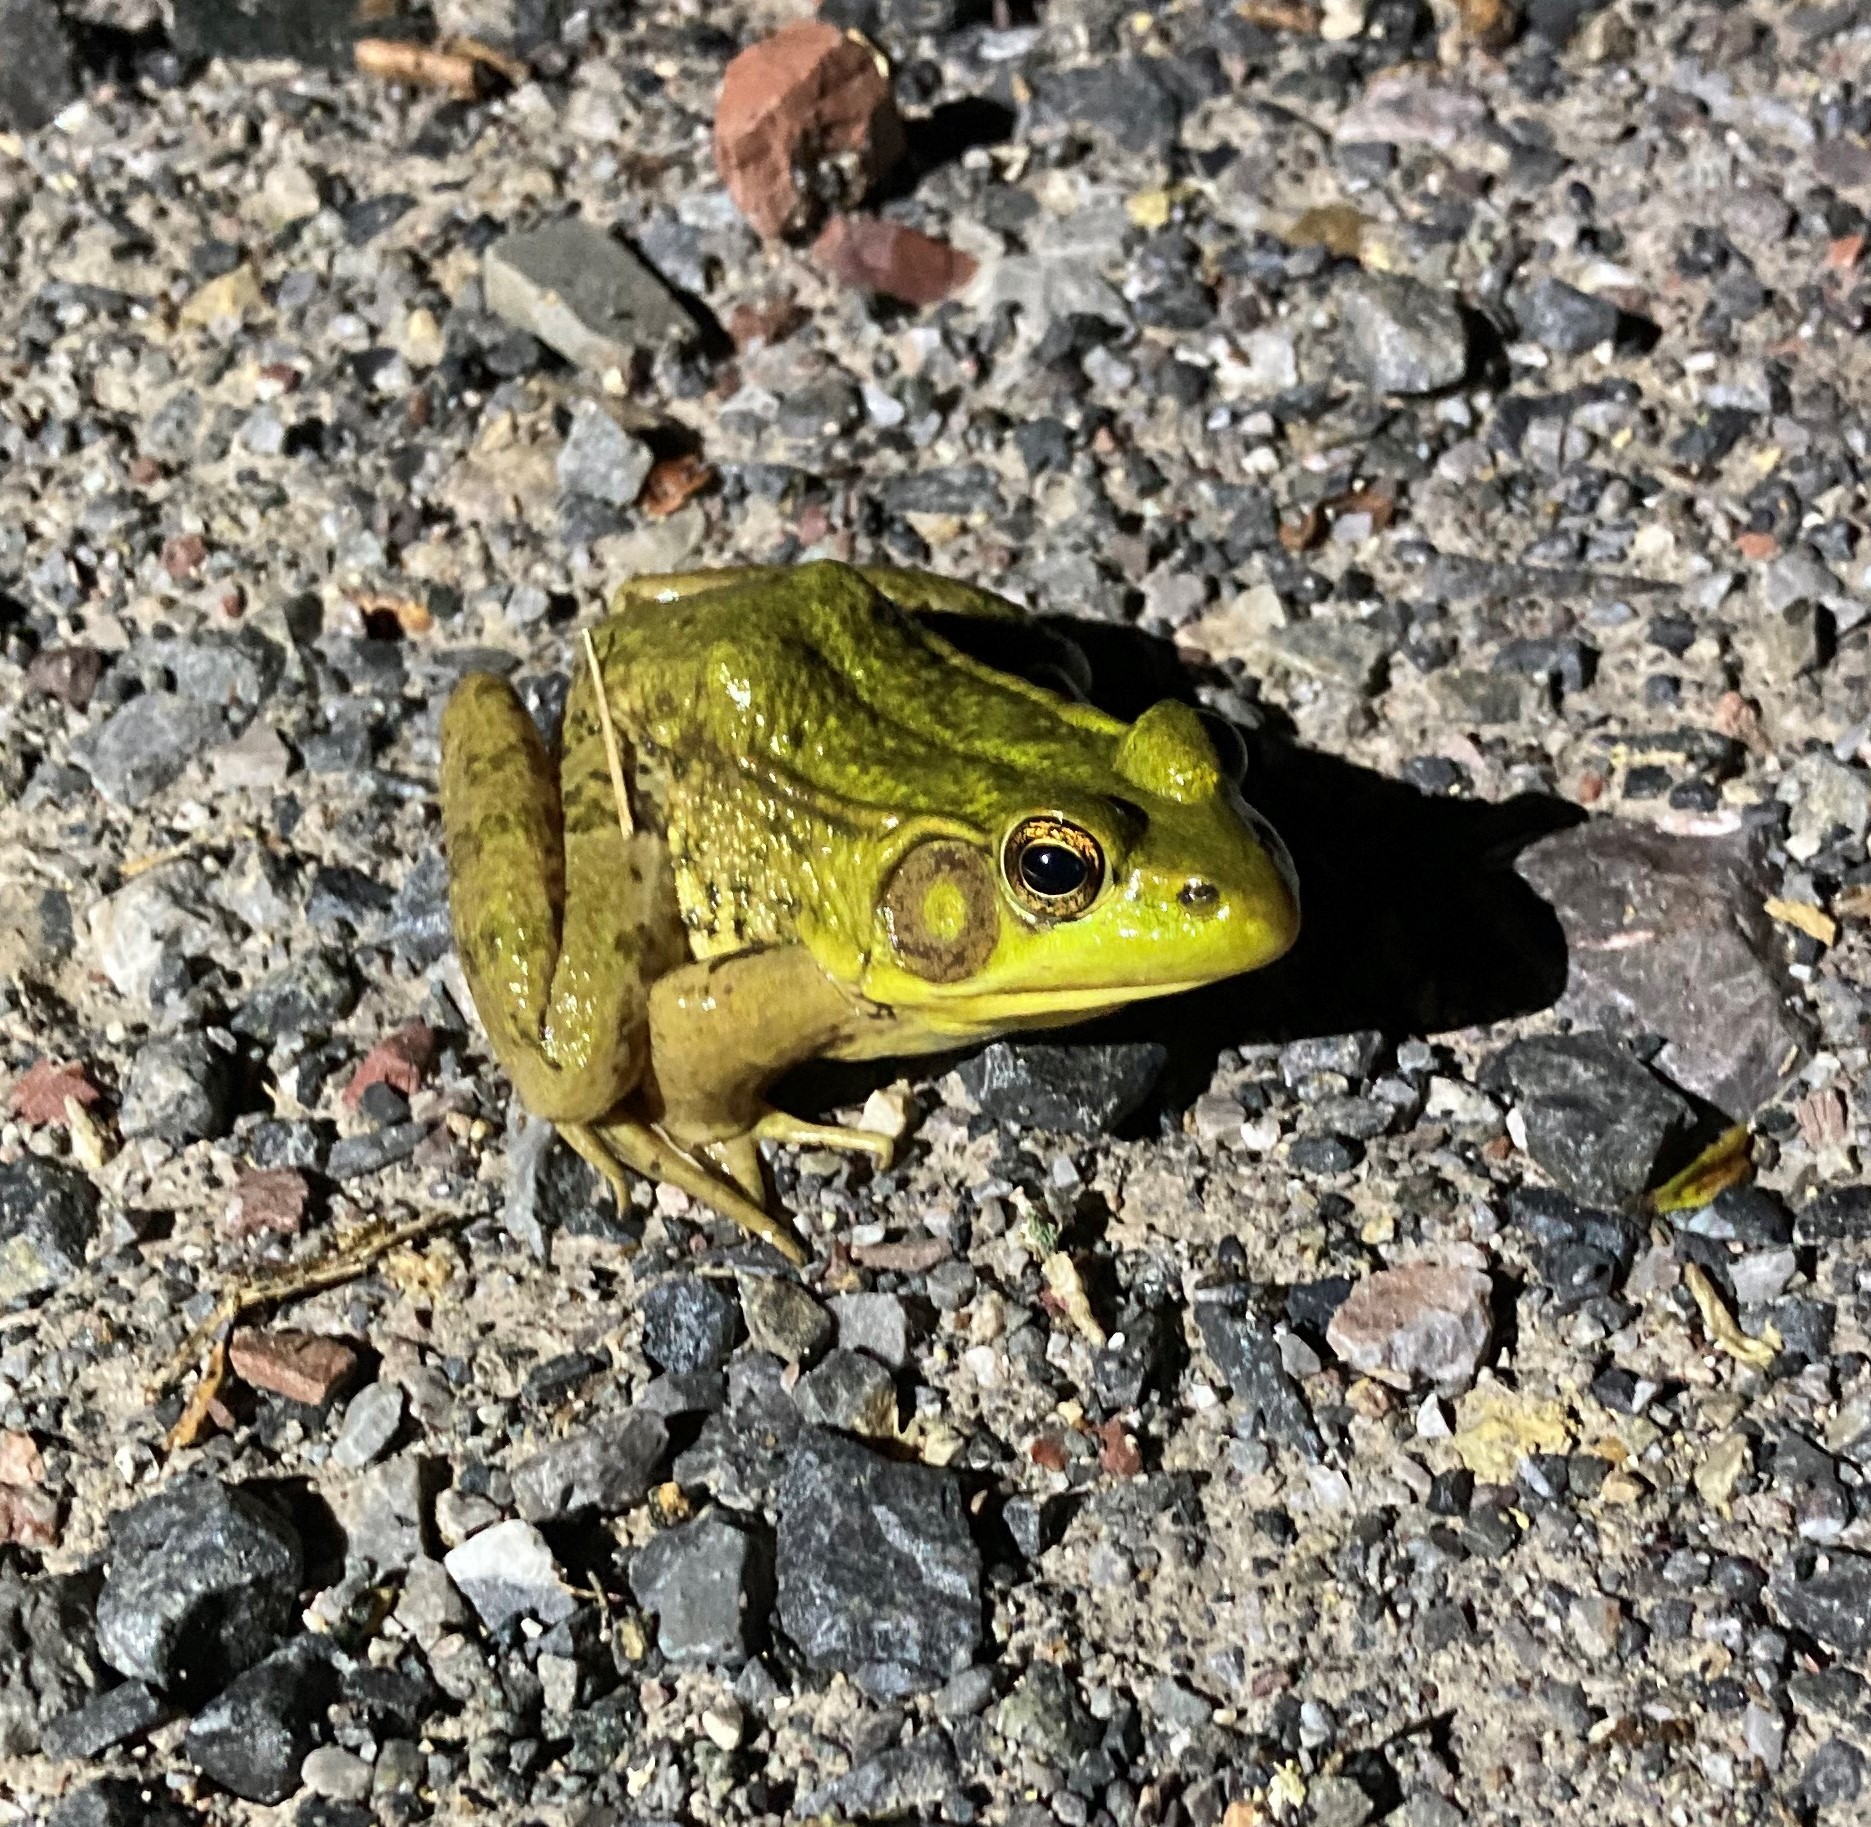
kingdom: Animalia
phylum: Chordata
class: Amphibia
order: Anura
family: Ranidae
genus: Lithobates
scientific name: Lithobates clamitans
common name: Green frog
